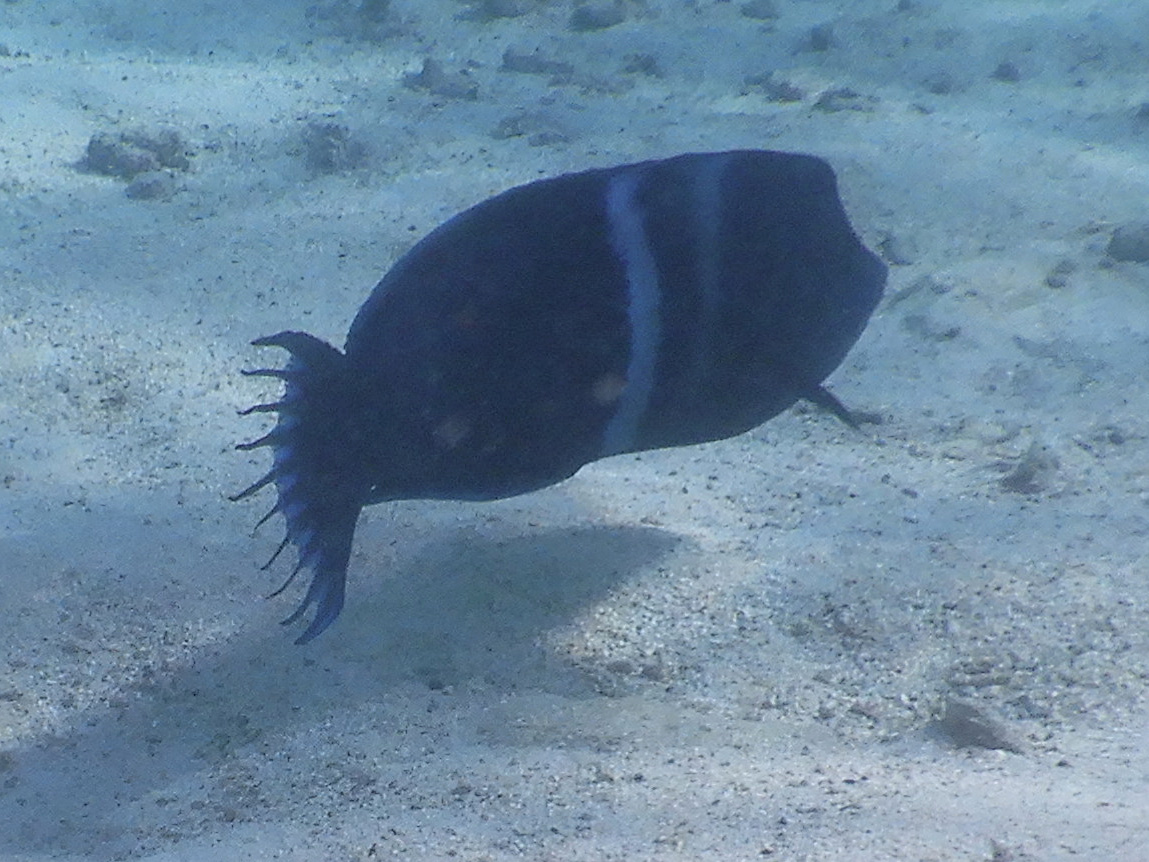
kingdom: Animalia
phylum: Chordata
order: Perciformes
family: Labridae
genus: Coris
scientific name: Coris aygula
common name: Clown coris
